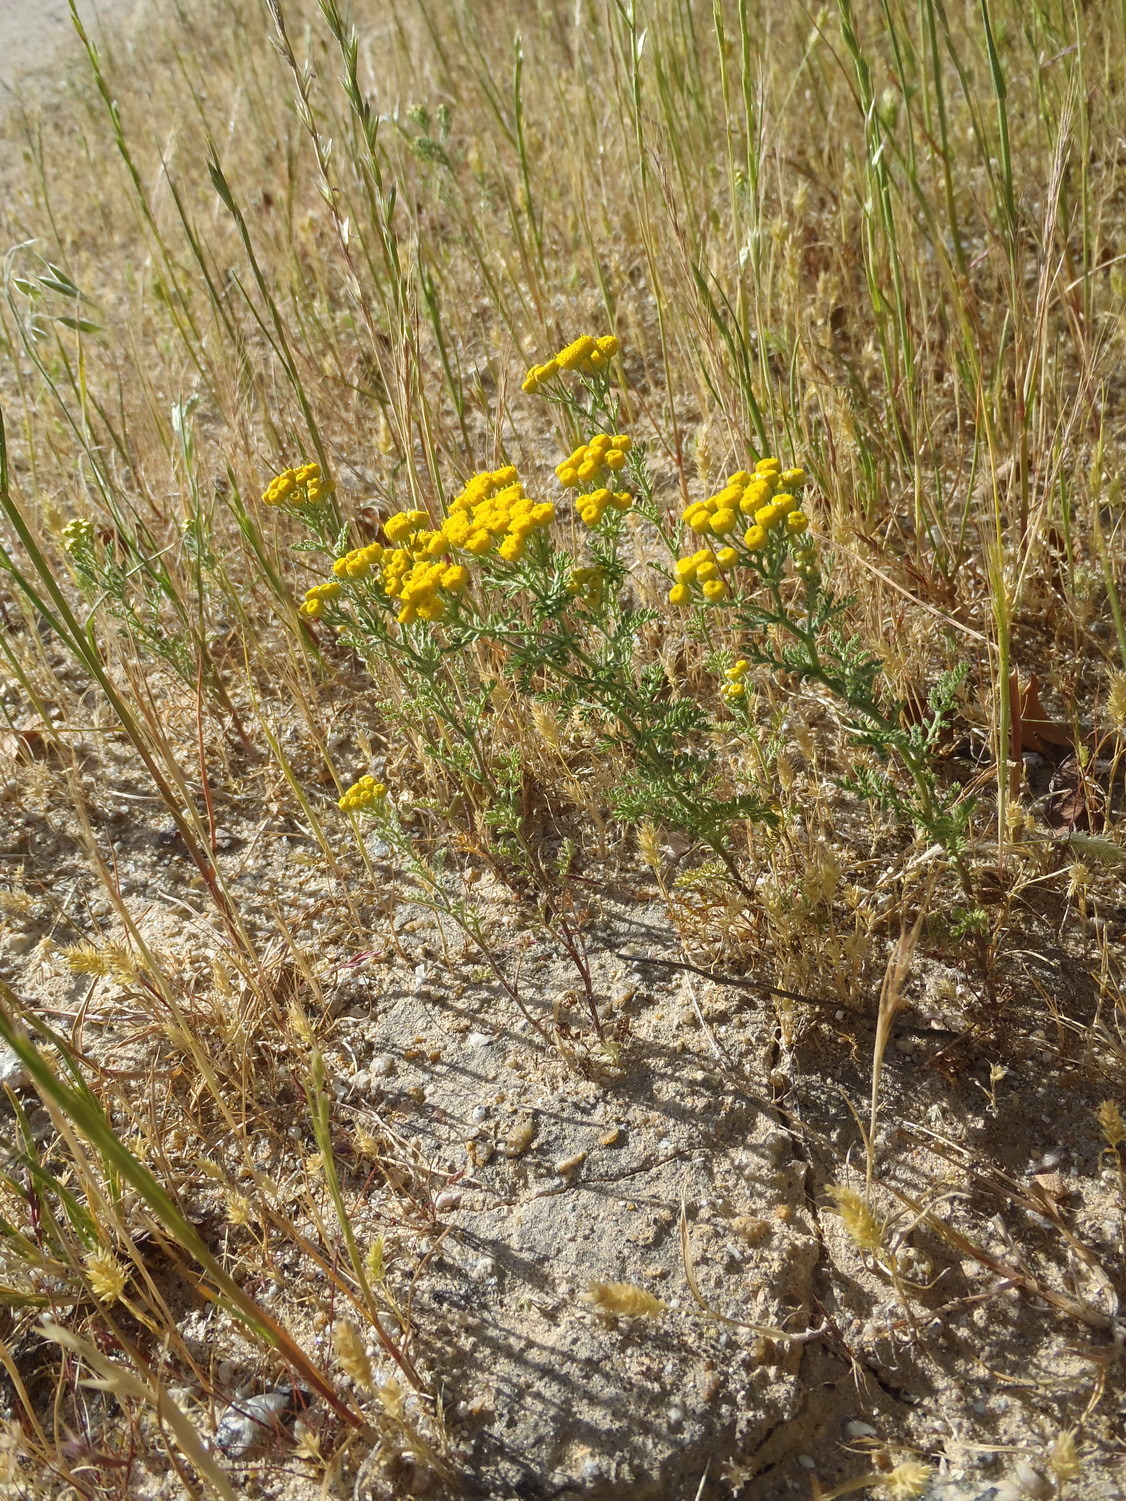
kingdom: Plantae
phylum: Tracheophyta
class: Magnoliopsida
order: Asterales
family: Asteraceae
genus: Oncosiphon
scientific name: Oncosiphon suffruticosus
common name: Shrubby mayweed
